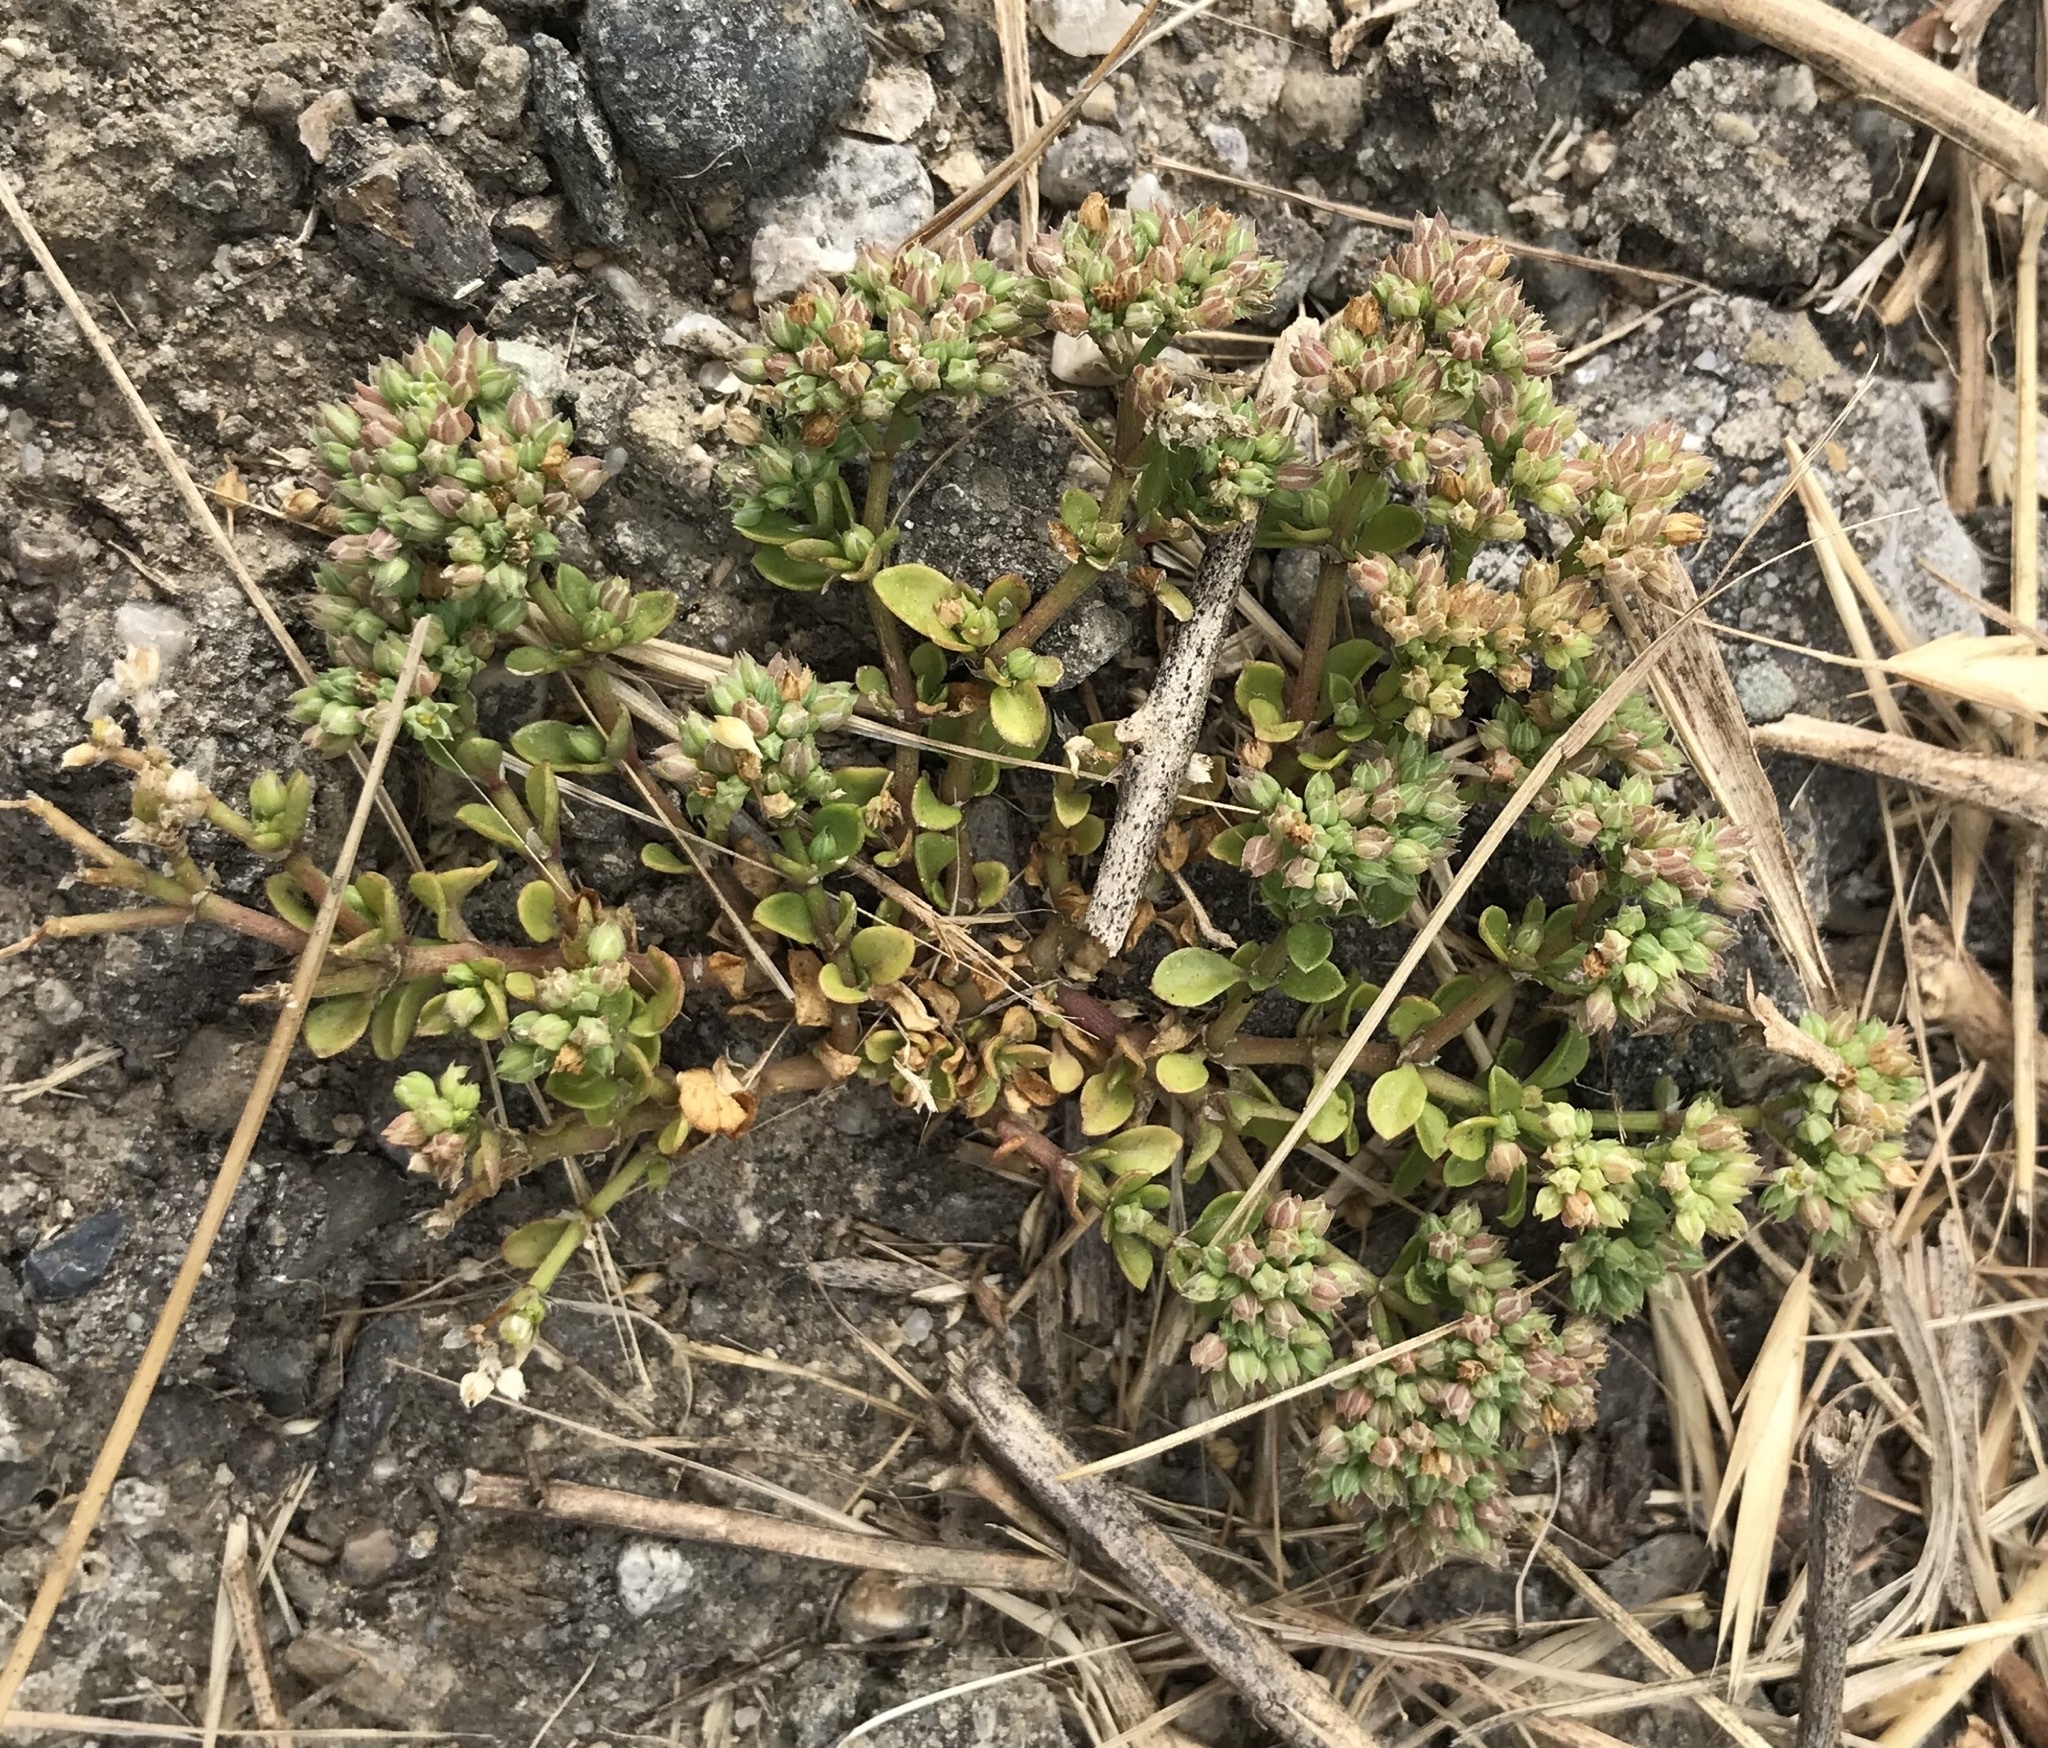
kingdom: Plantae
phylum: Tracheophyta
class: Magnoliopsida
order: Caryophyllales
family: Caryophyllaceae
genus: Polycarpon
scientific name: Polycarpon tetraphyllum
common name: Four-leaved all-seed
